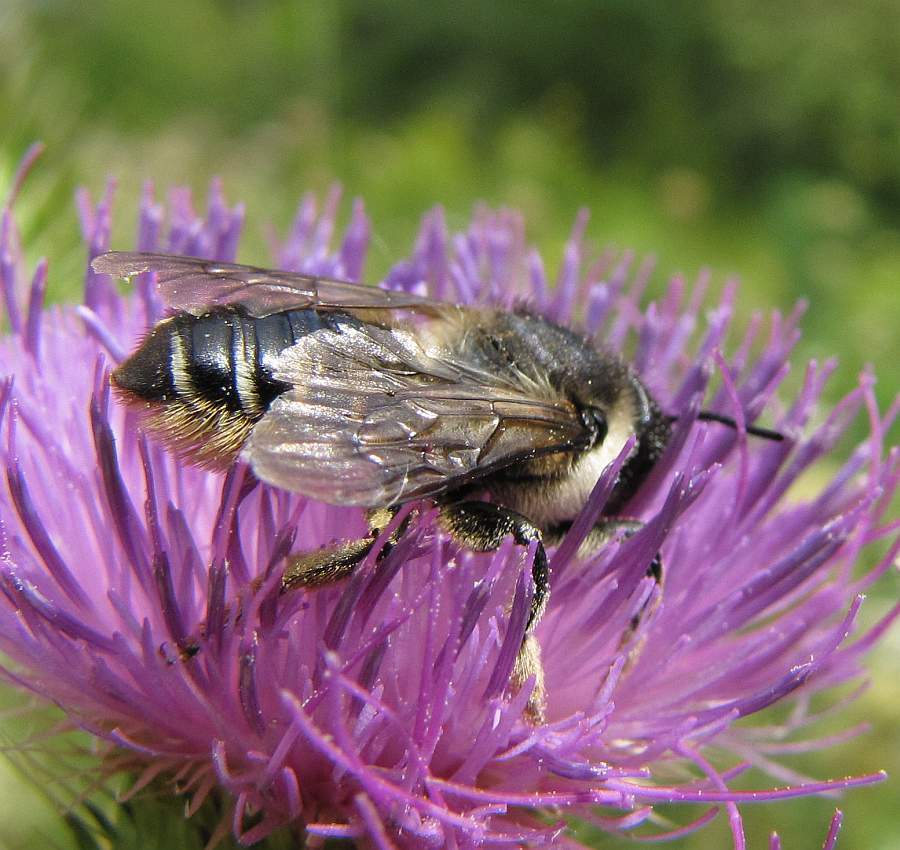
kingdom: Animalia
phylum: Arthropoda
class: Insecta
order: Hymenoptera
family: Megachilidae
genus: Megachile
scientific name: Megachile inermis
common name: Unarmed leafcutter bee
